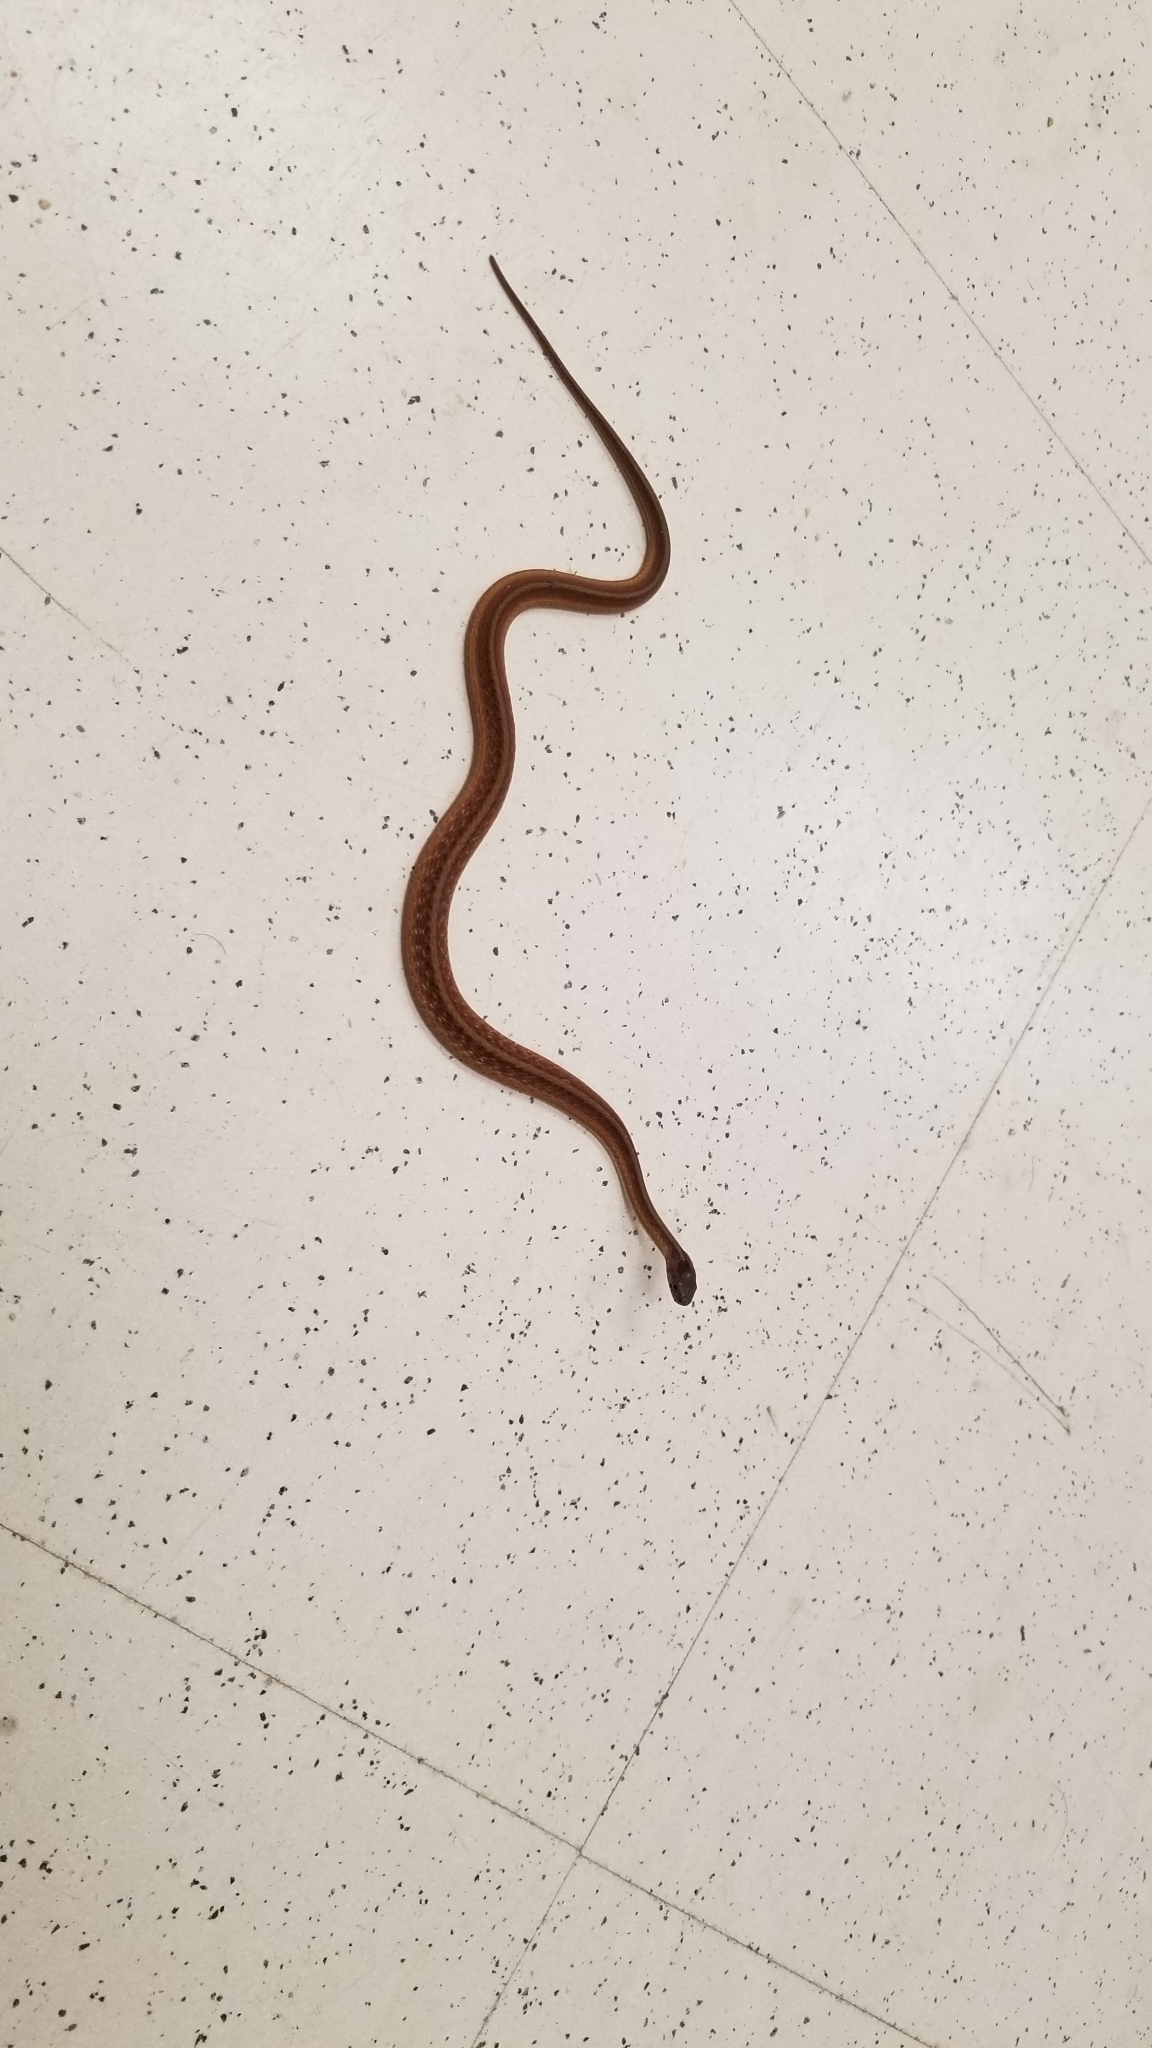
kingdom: Animalia
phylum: Chordata
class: Squamata
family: Colubridae
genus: Storeria
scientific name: Storeria dekayi
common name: (dekay’s) brown snake
